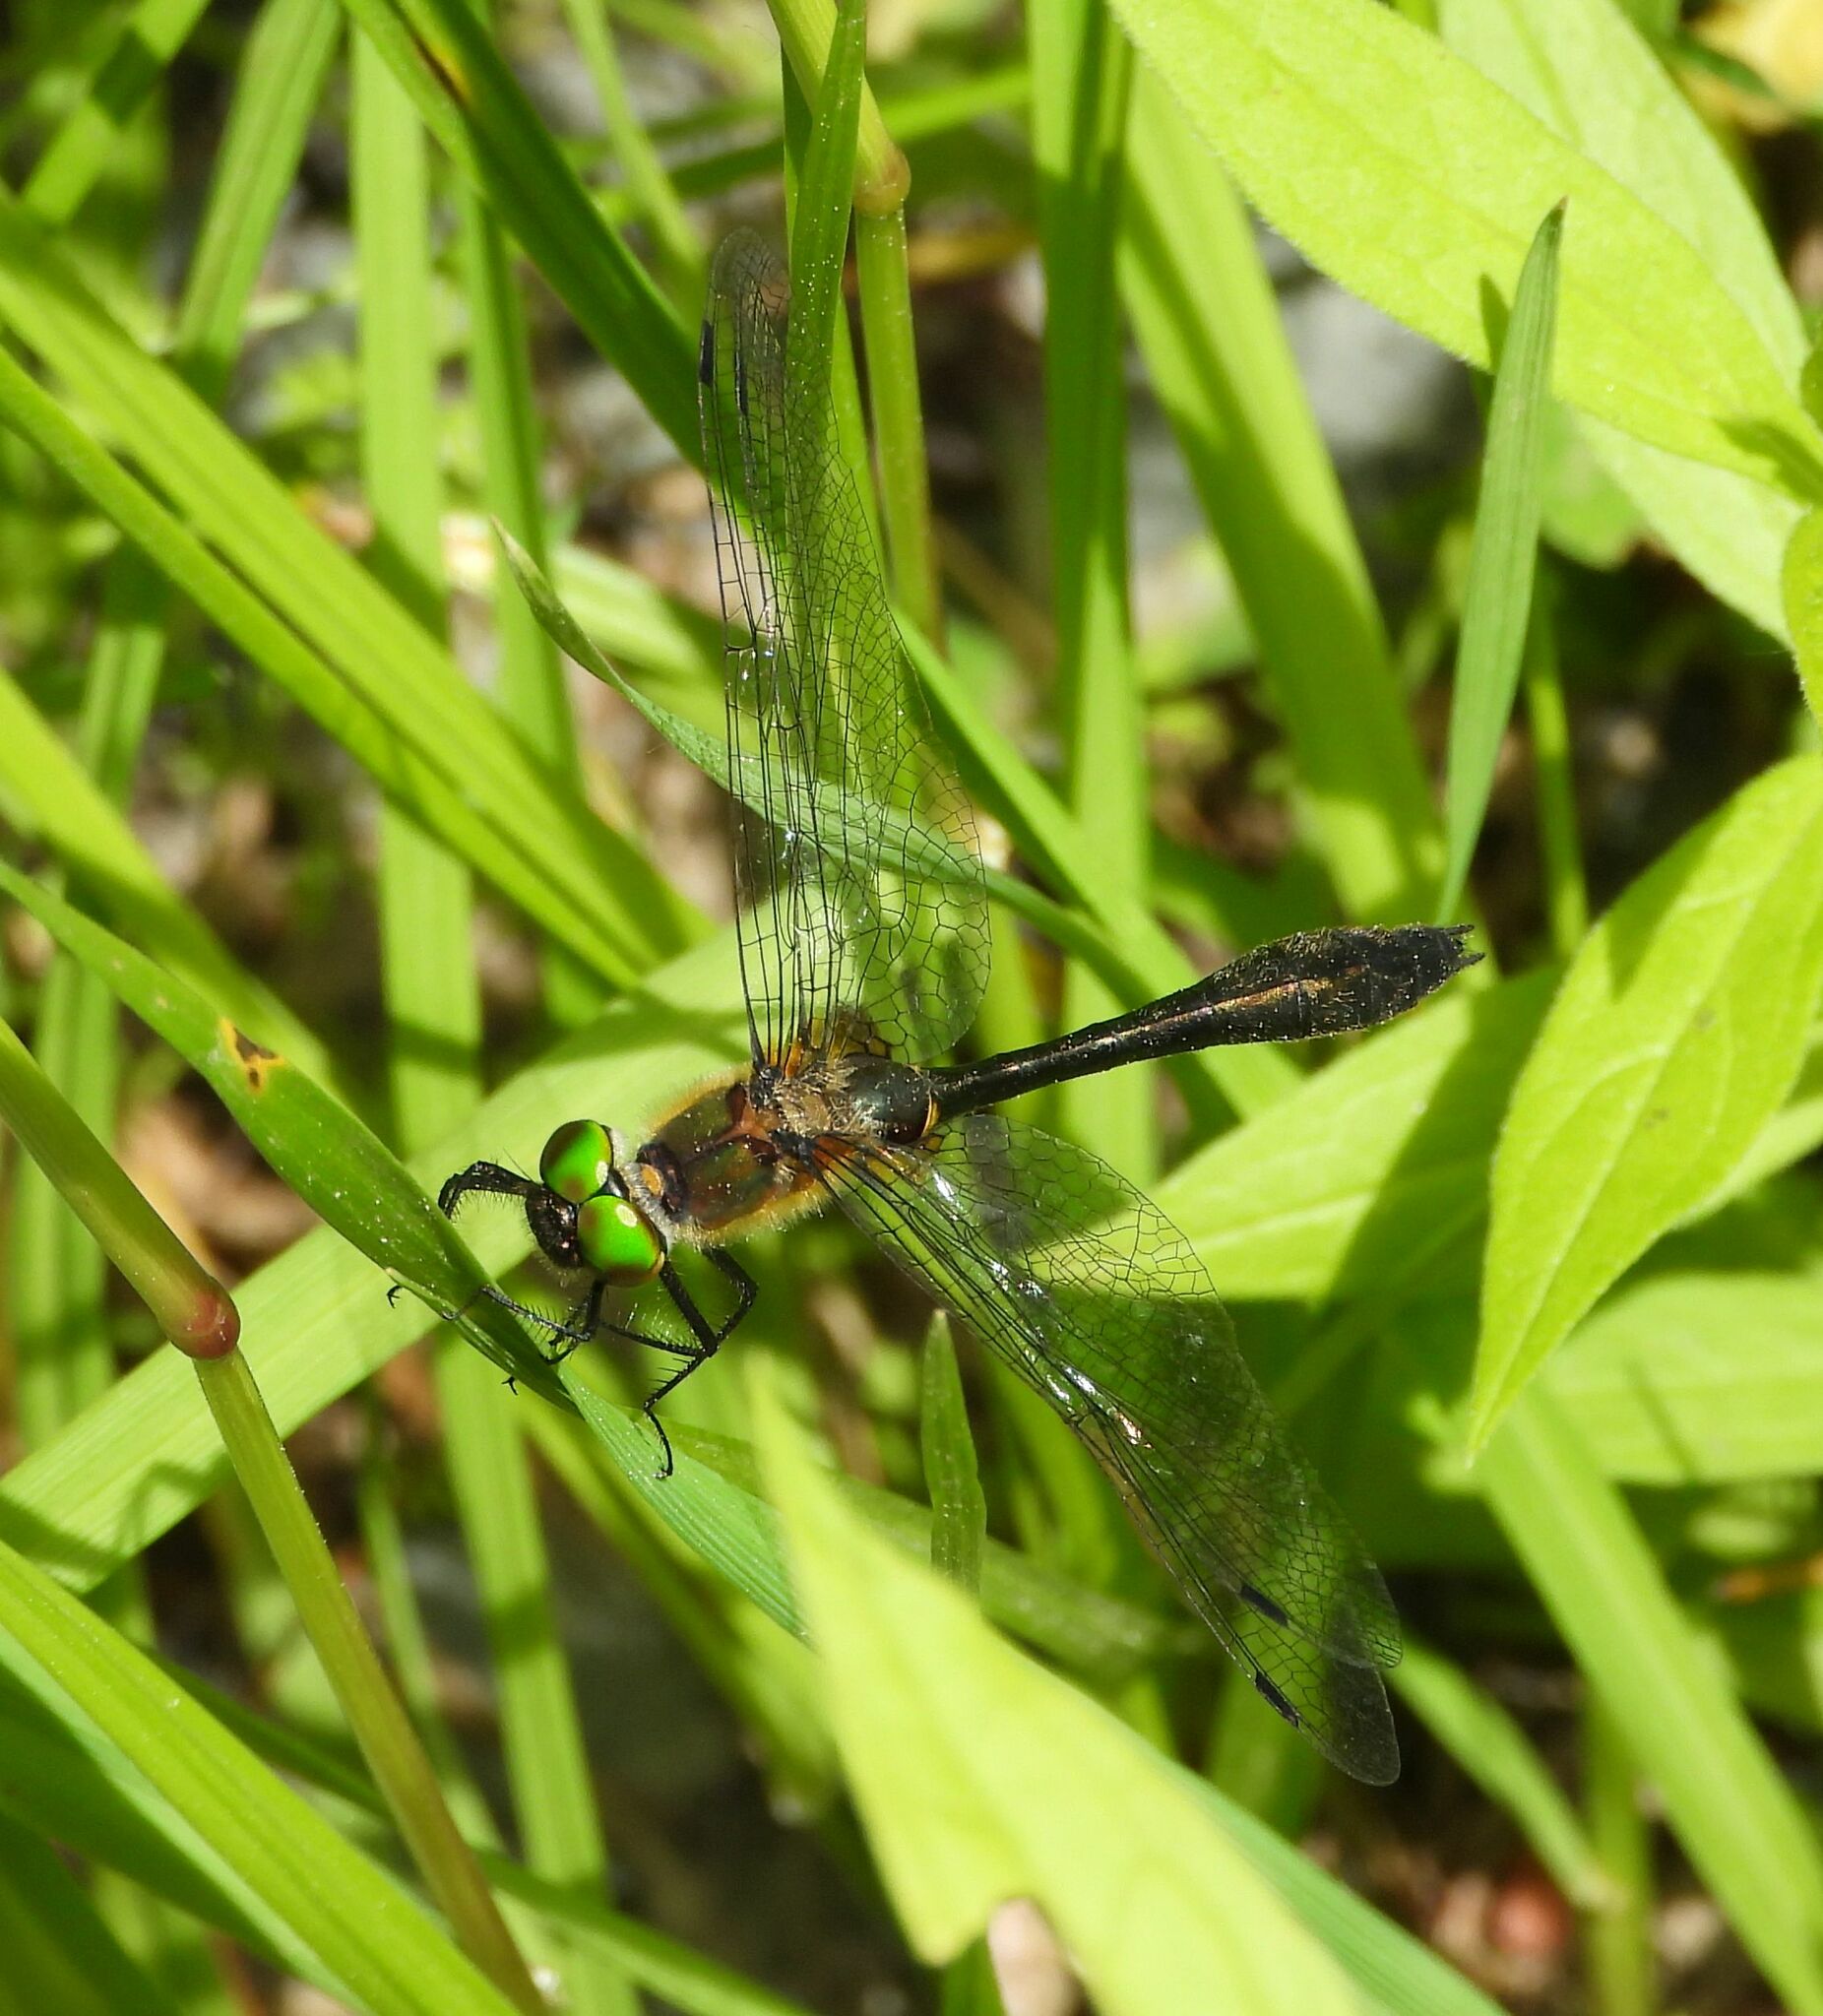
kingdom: Animalia
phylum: Arthropoda
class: Insecta
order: Odonata
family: Corduliidae
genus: Dorocordulia
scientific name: Dorocordulia libera
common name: Racket-tailed emerald
